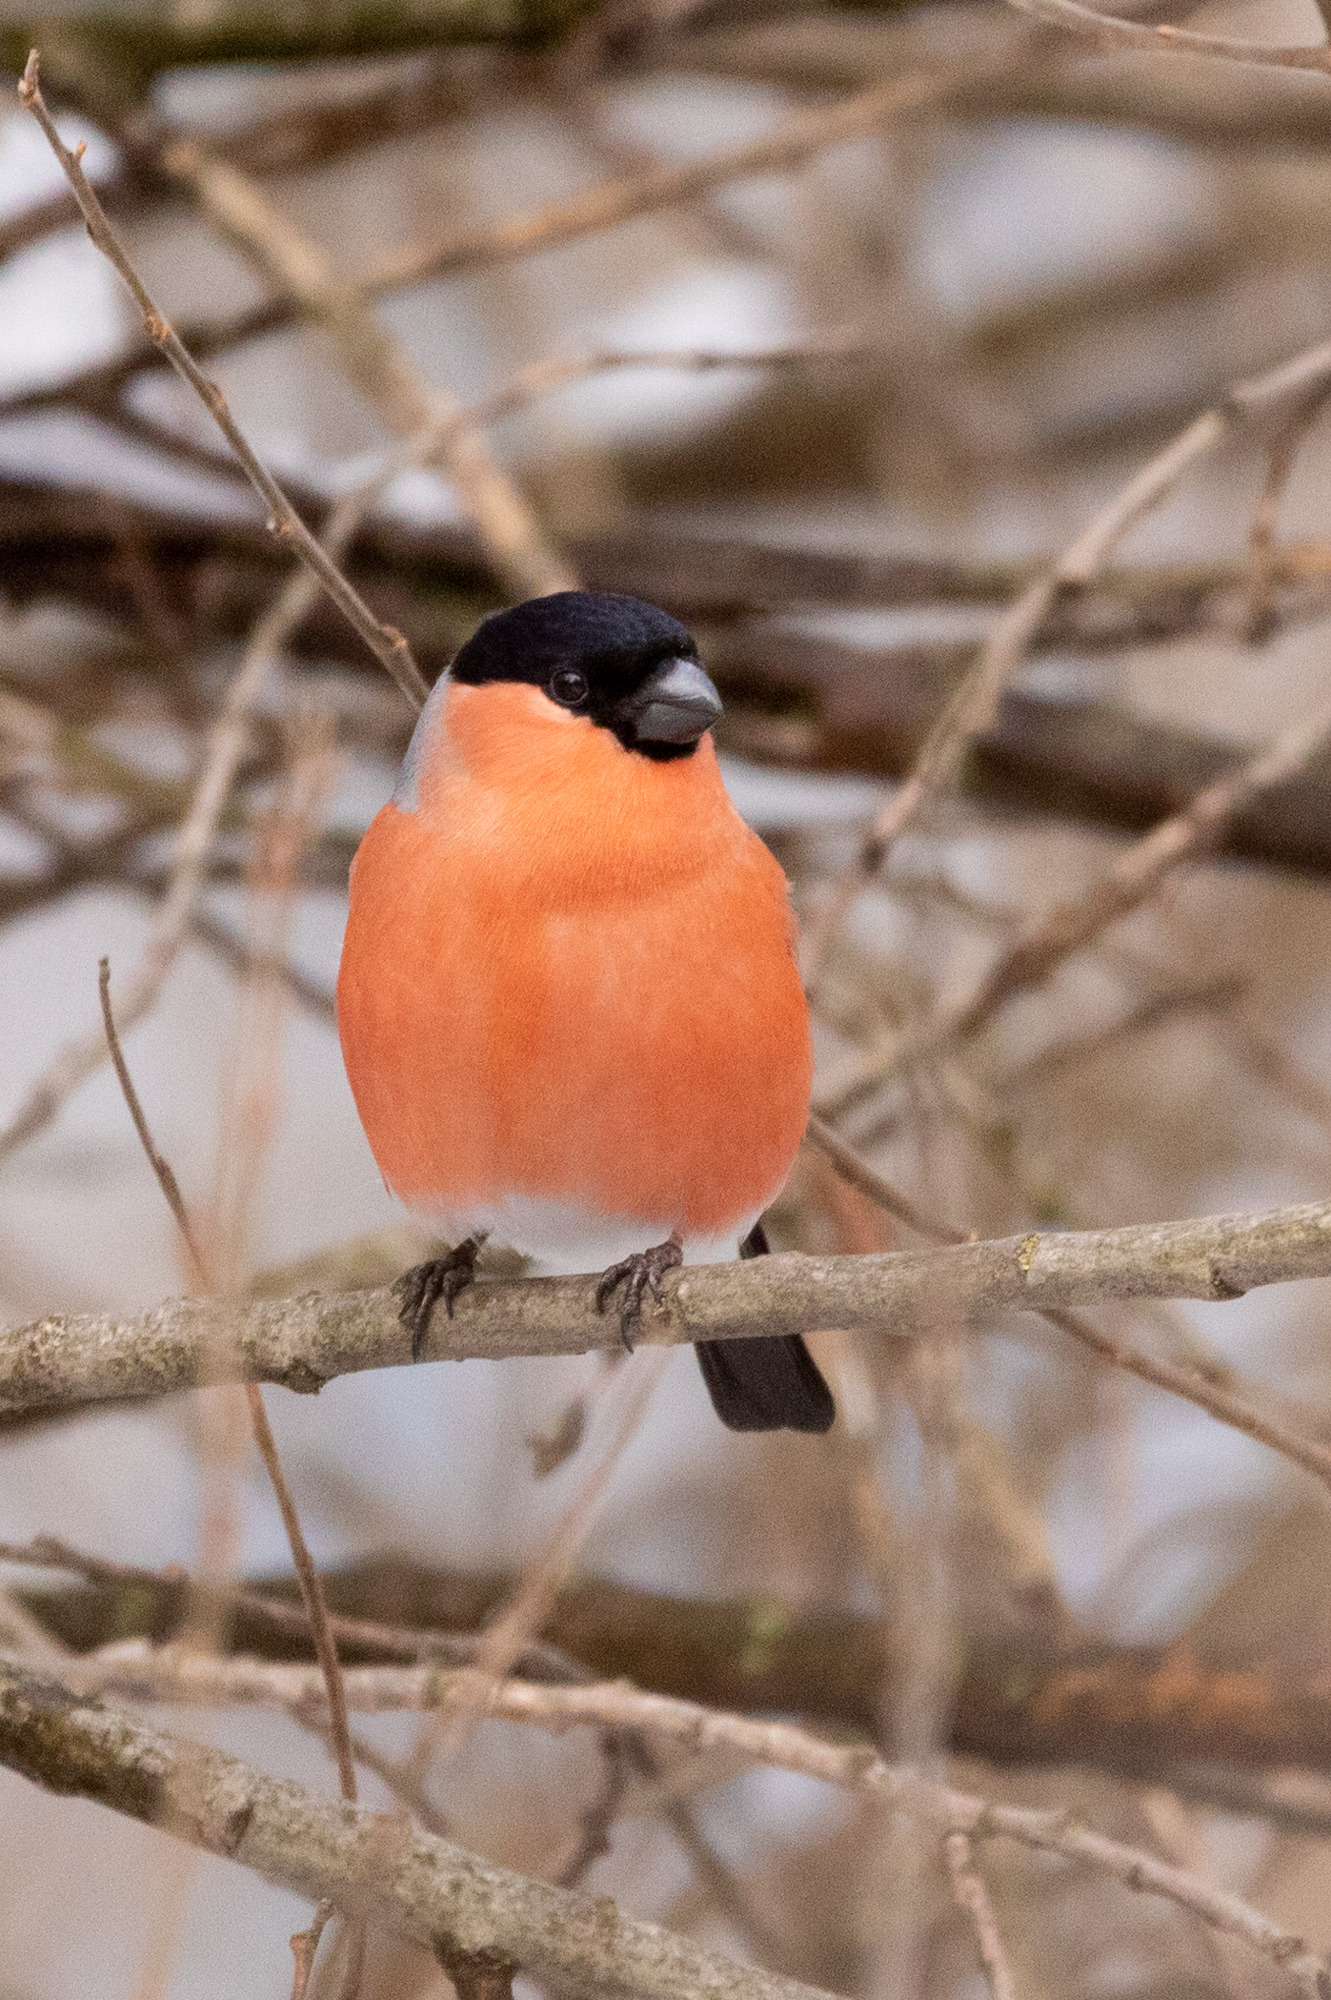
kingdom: Animalia
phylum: Chordata
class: Aves
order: Passeriformes
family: Fringillidae
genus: Pyrrhula
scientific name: Pyrrhula pyrrhula
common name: Eurasian bullfinch
